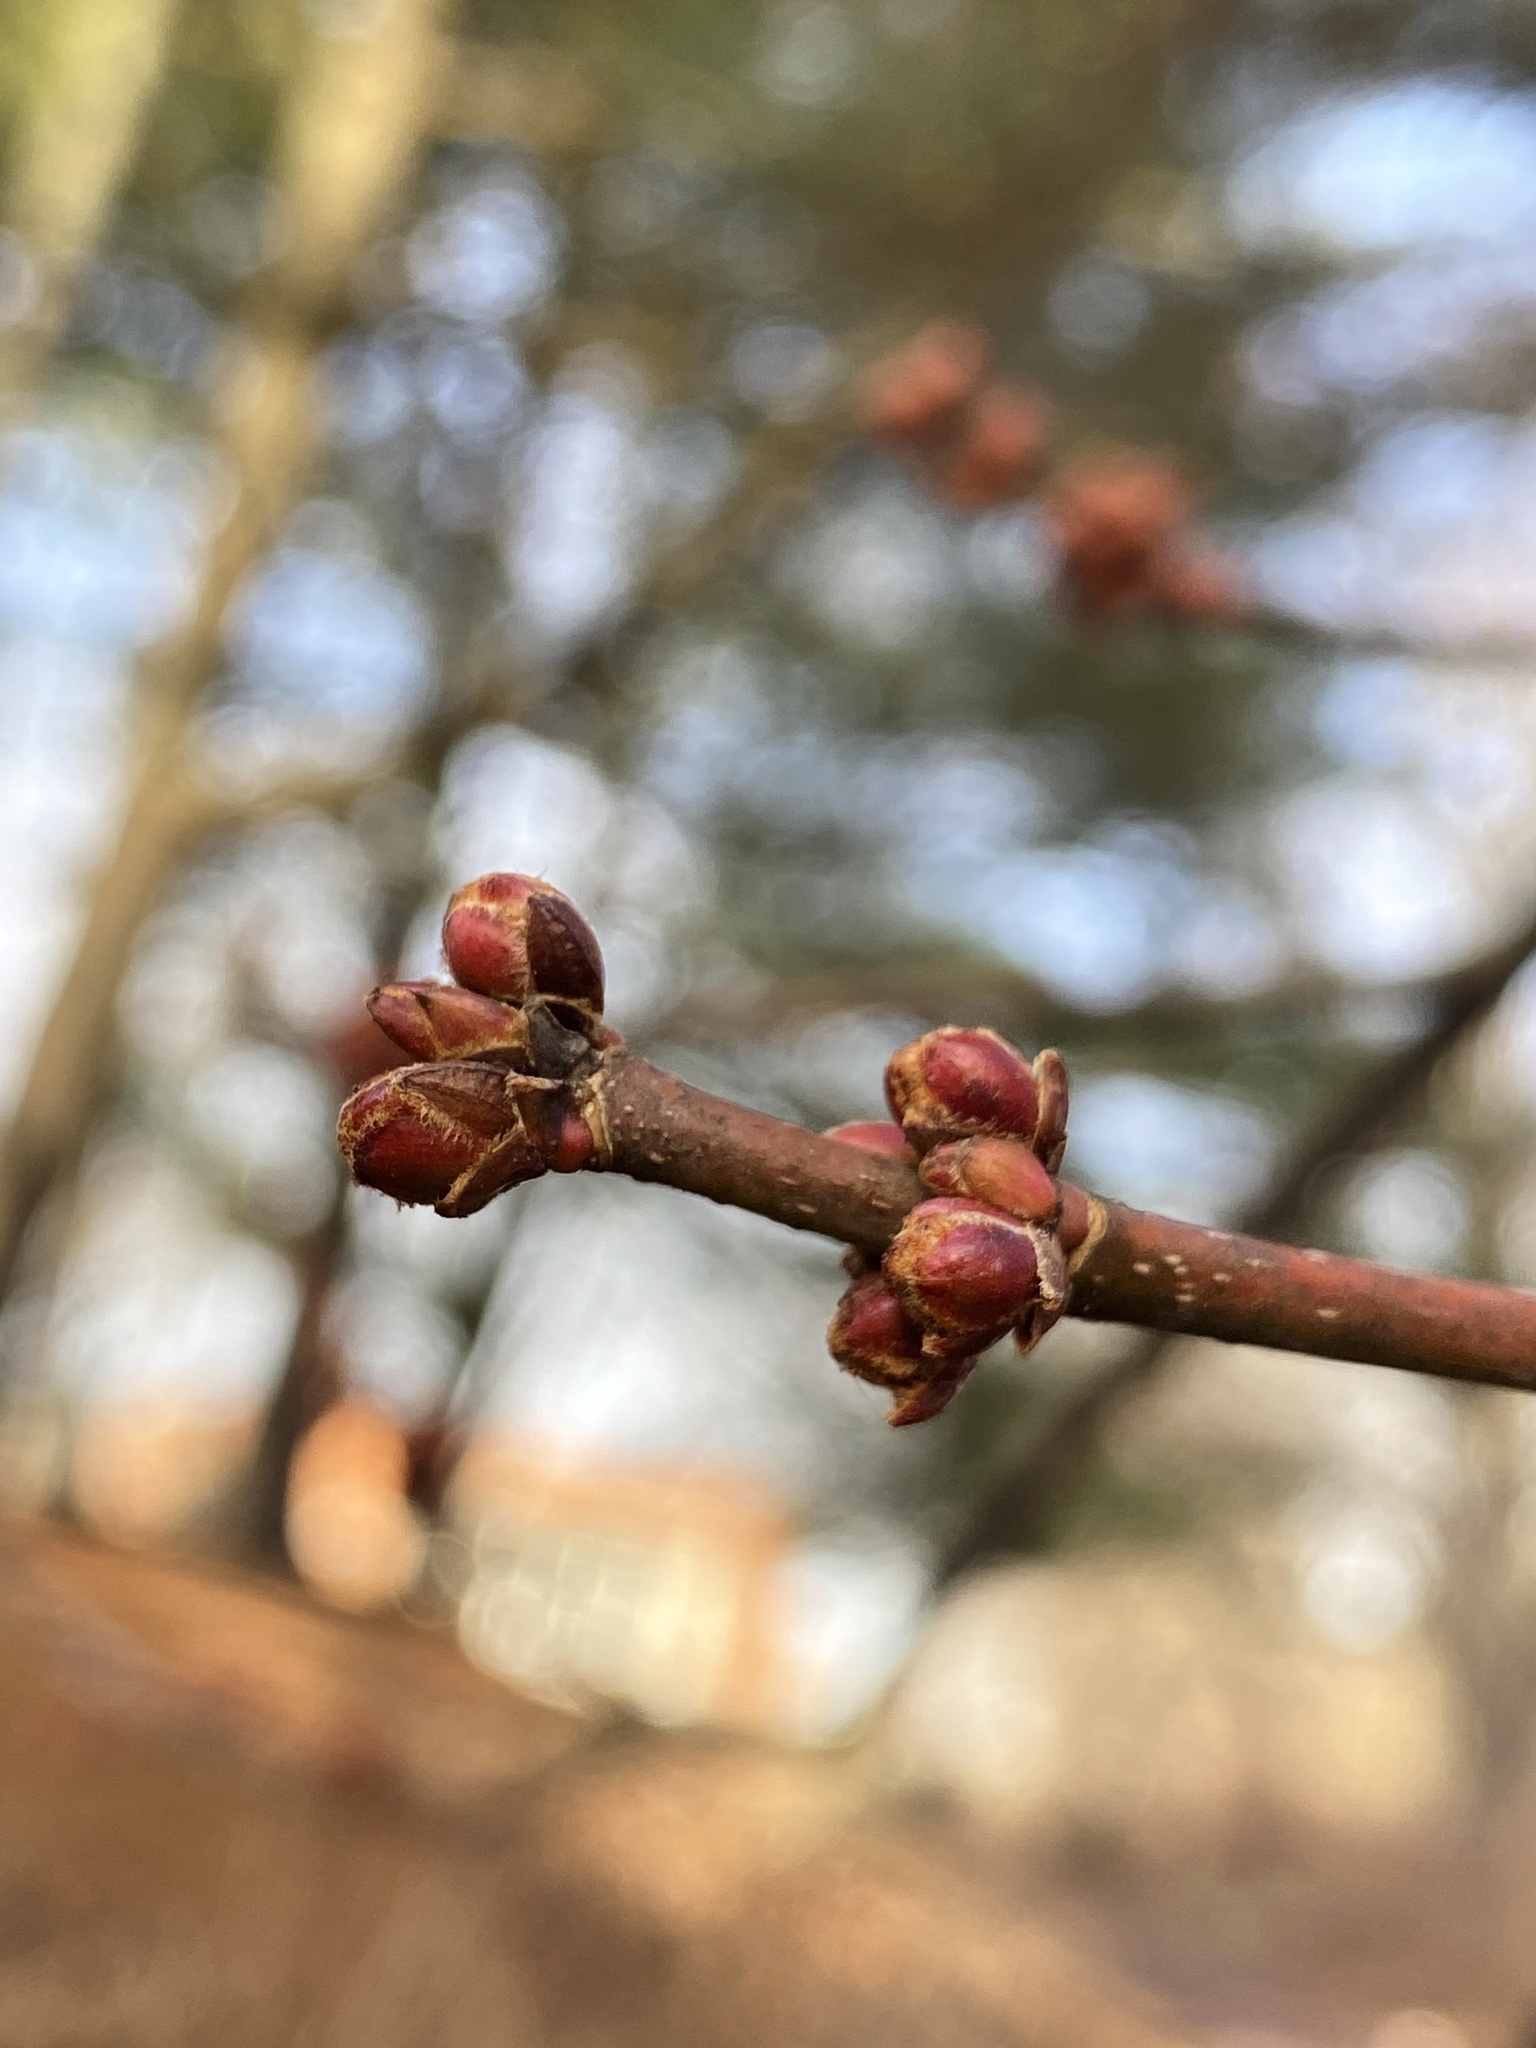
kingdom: Plantae
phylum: Tracheophyta
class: Magnoliopsida
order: Sapindales
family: Sapindaceae
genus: Acer
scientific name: Acer saccharinum
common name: Silver maple
